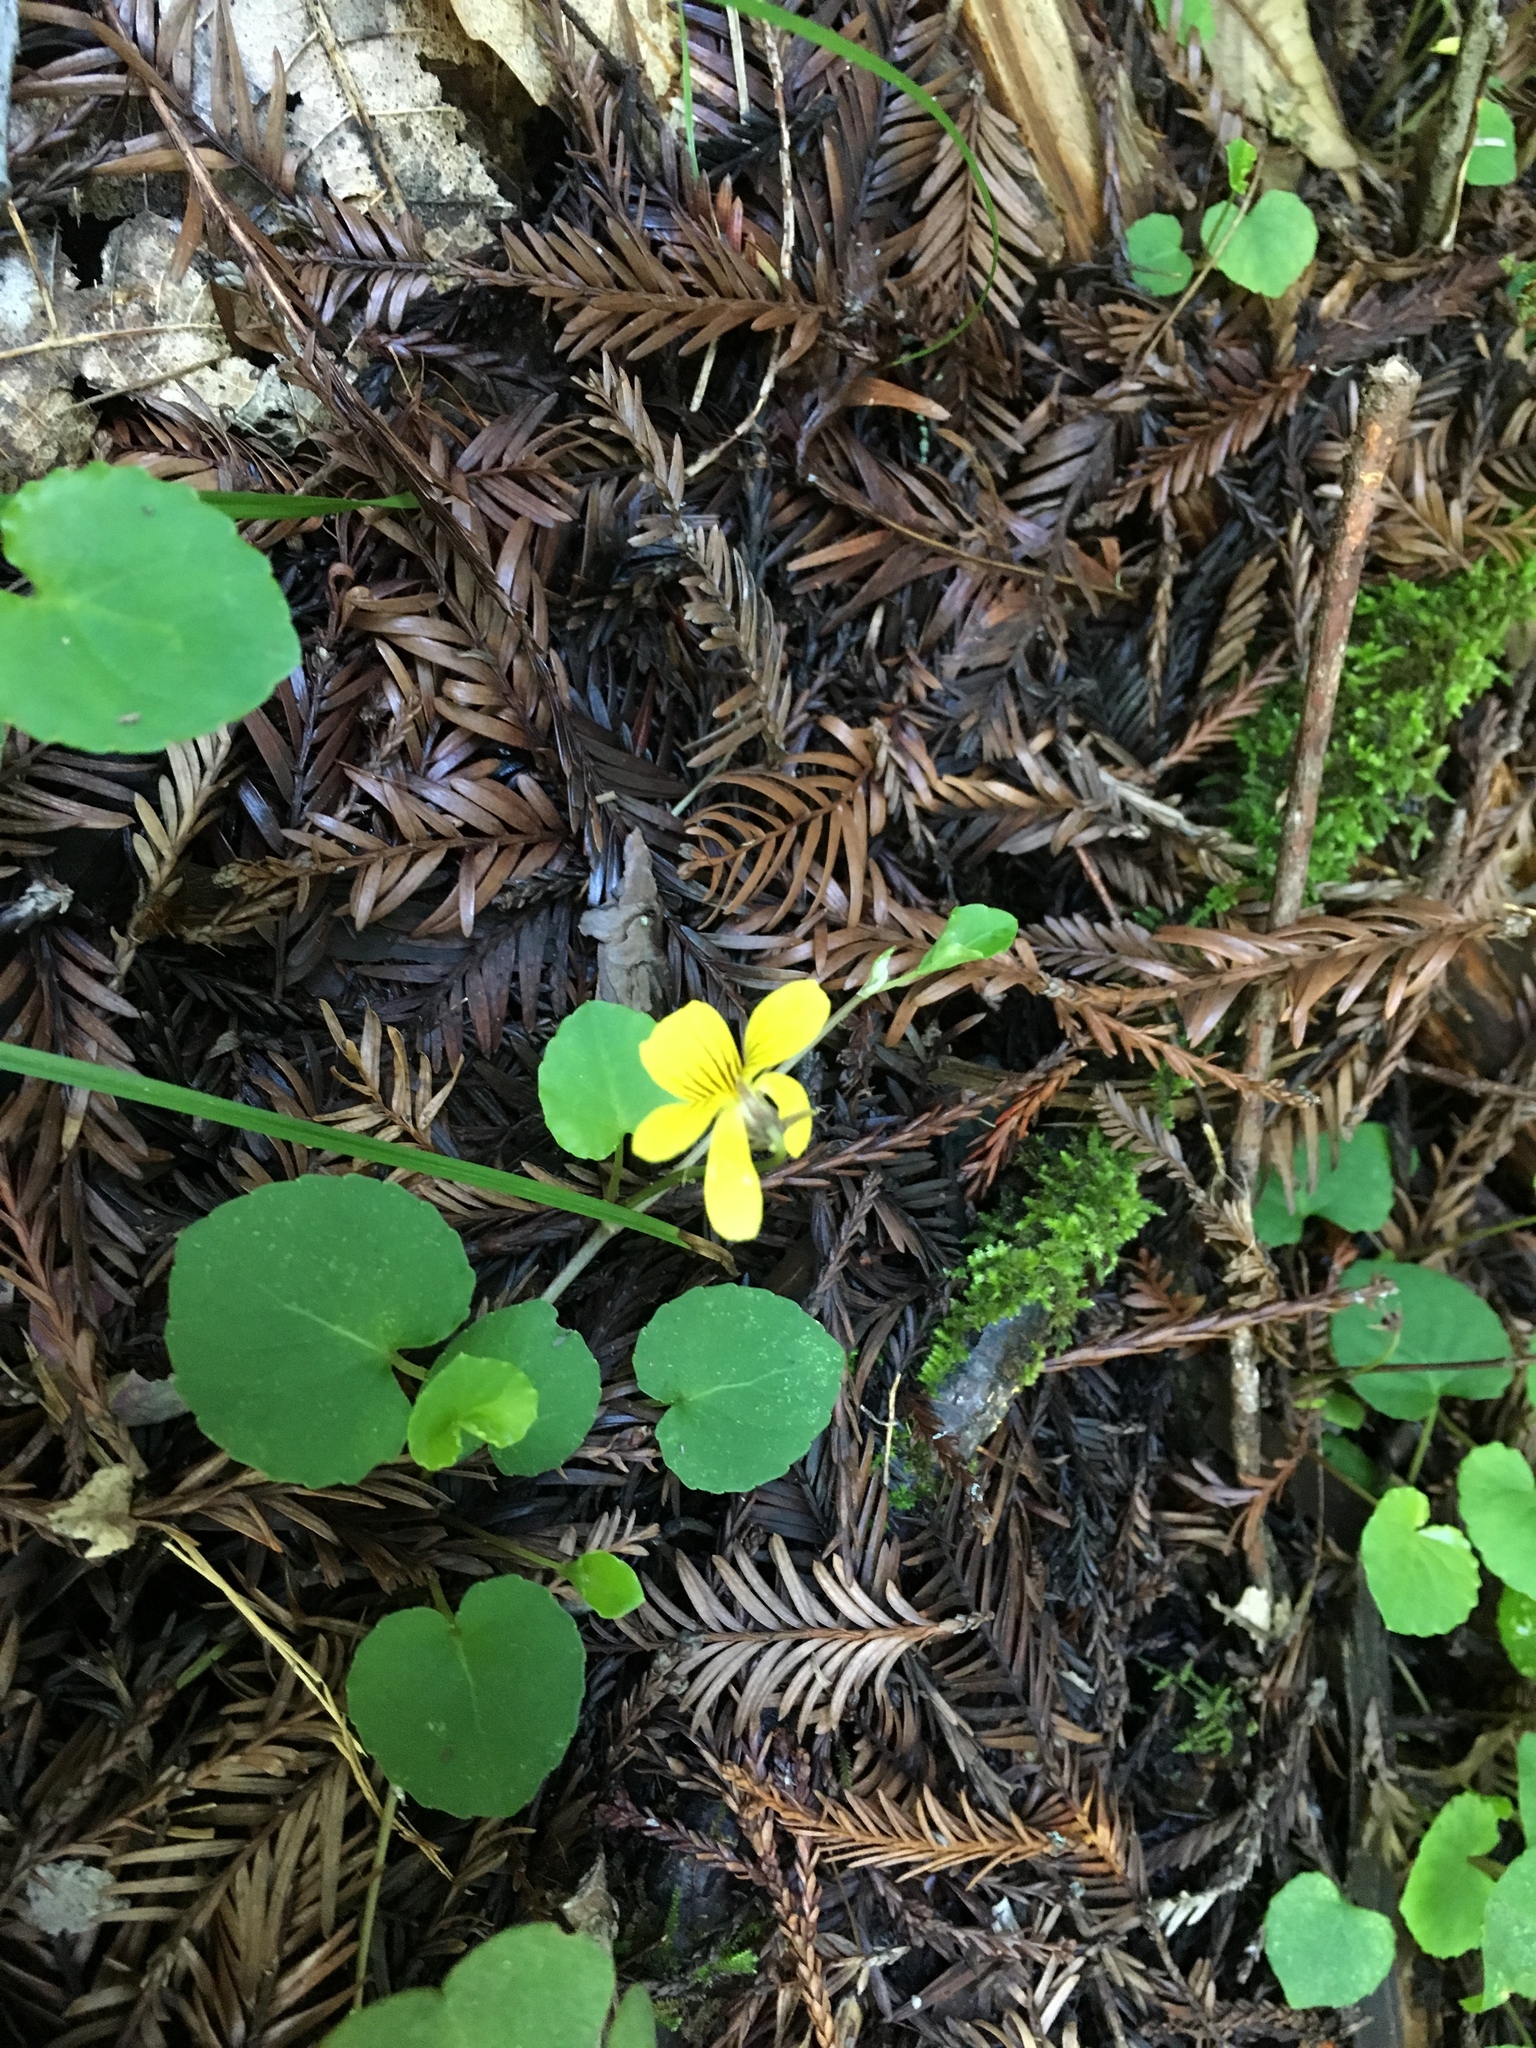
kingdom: Plantae
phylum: Tracheophyta
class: Magnoliopsida
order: Malpighiales
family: Violaceae
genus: Viola
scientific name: Viola sempervirens
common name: Evergreen violet
